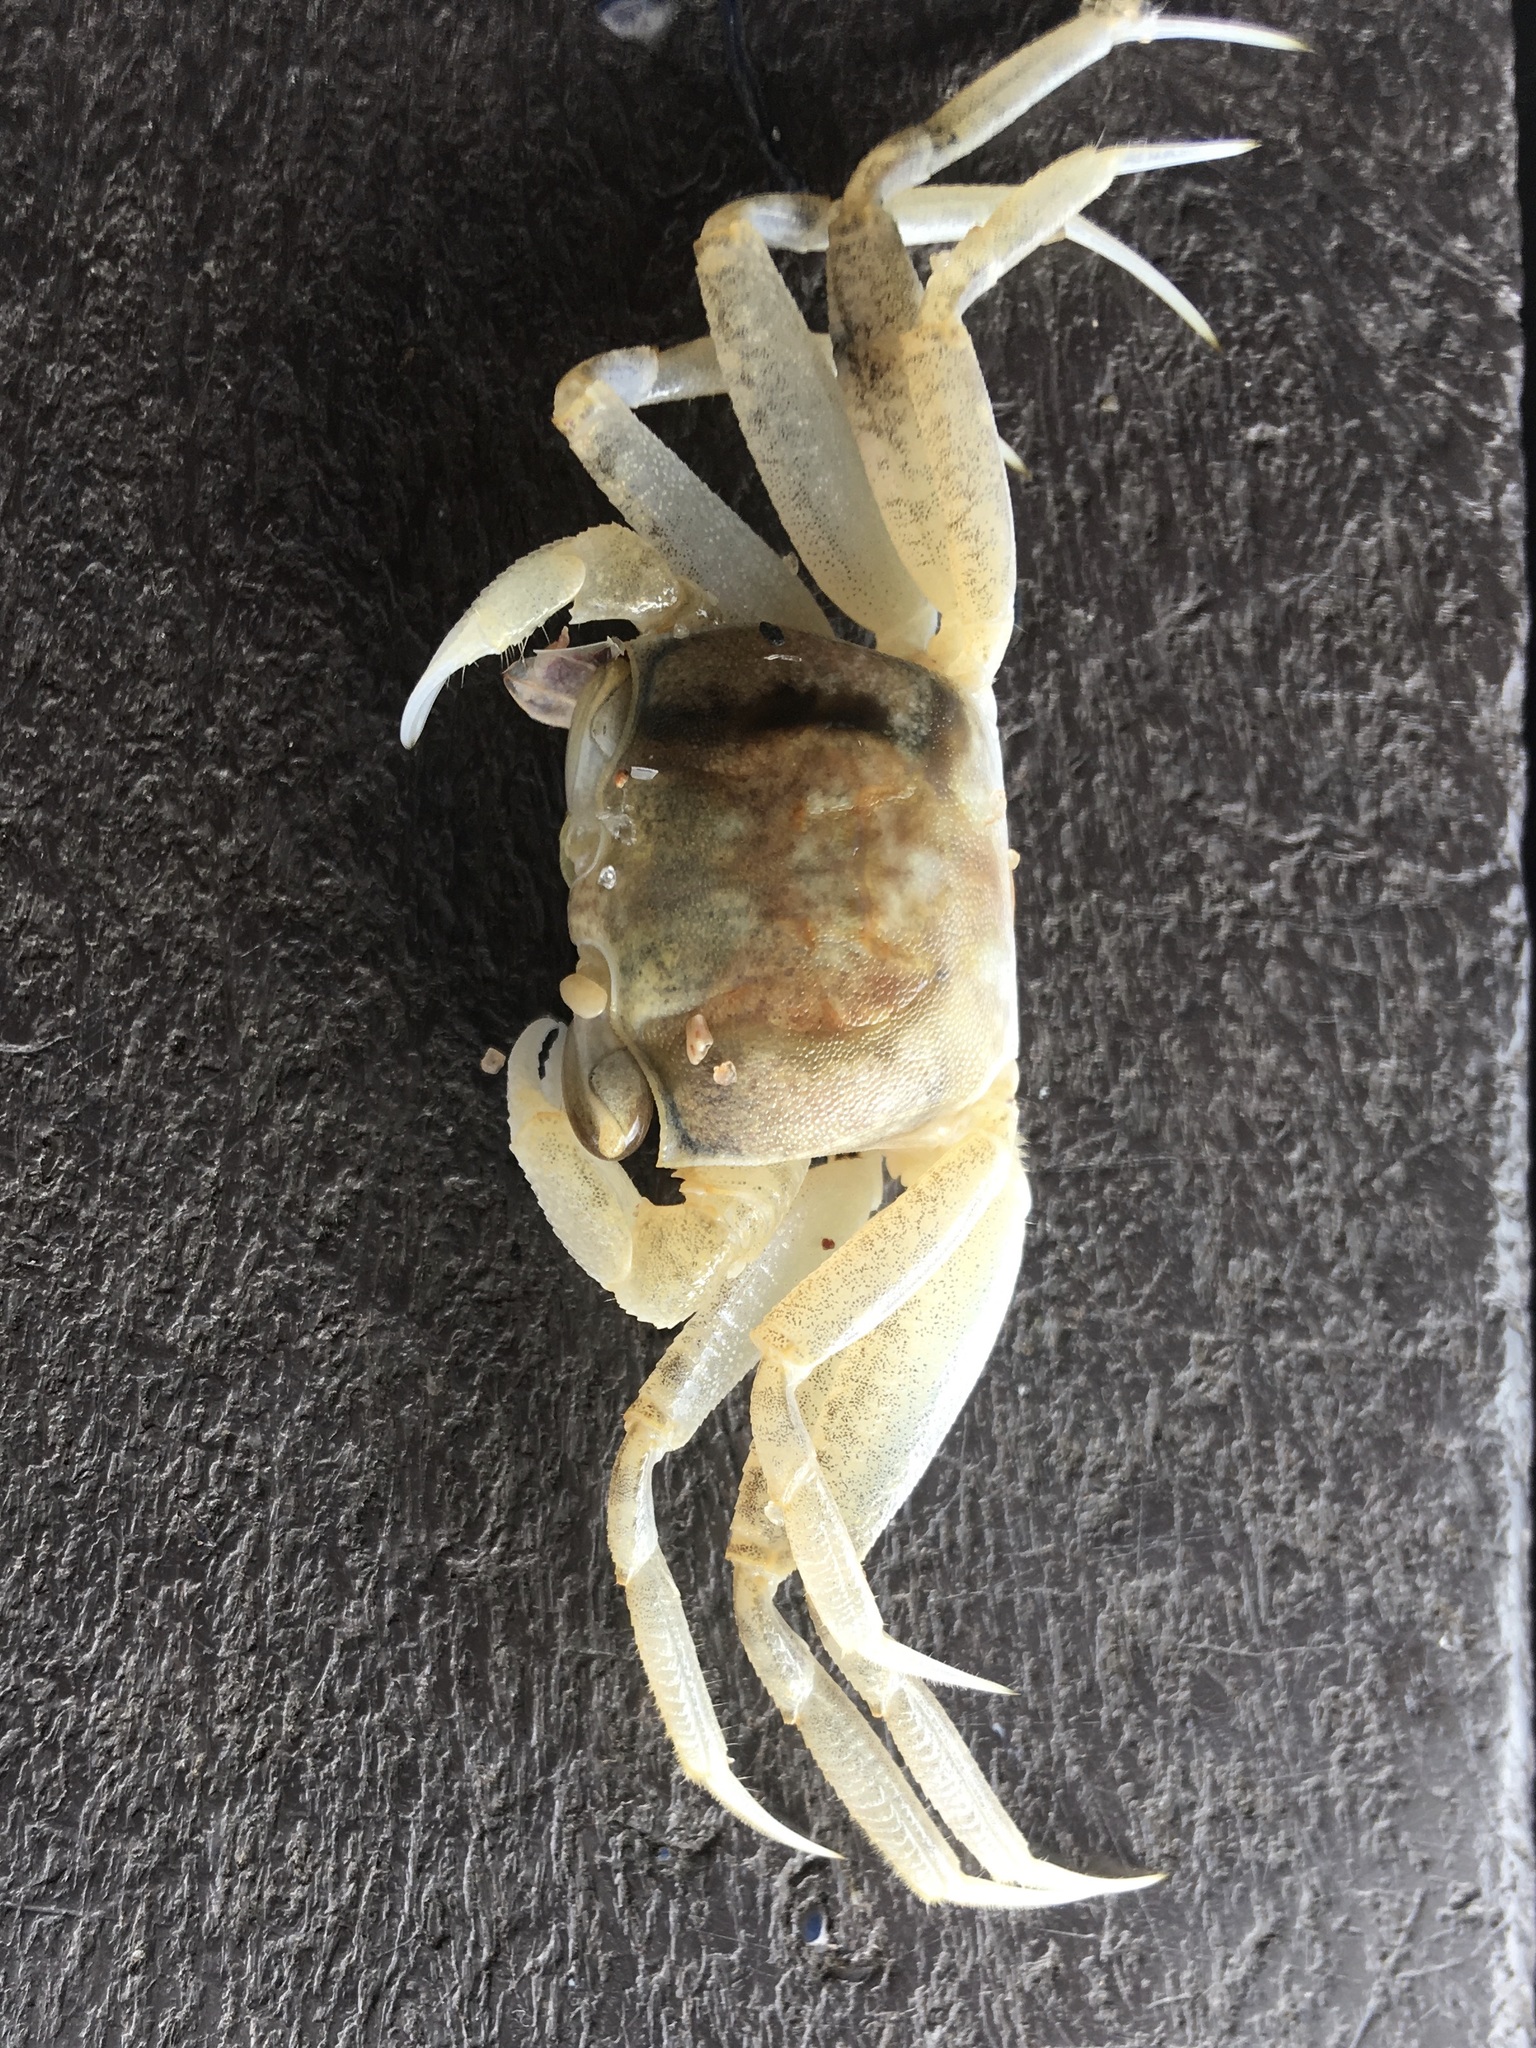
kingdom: Animalia
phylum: Arthropoda
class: Malacostraca
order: Decapoda
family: Ocypodidae
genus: Ocypode
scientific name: Ocypode
